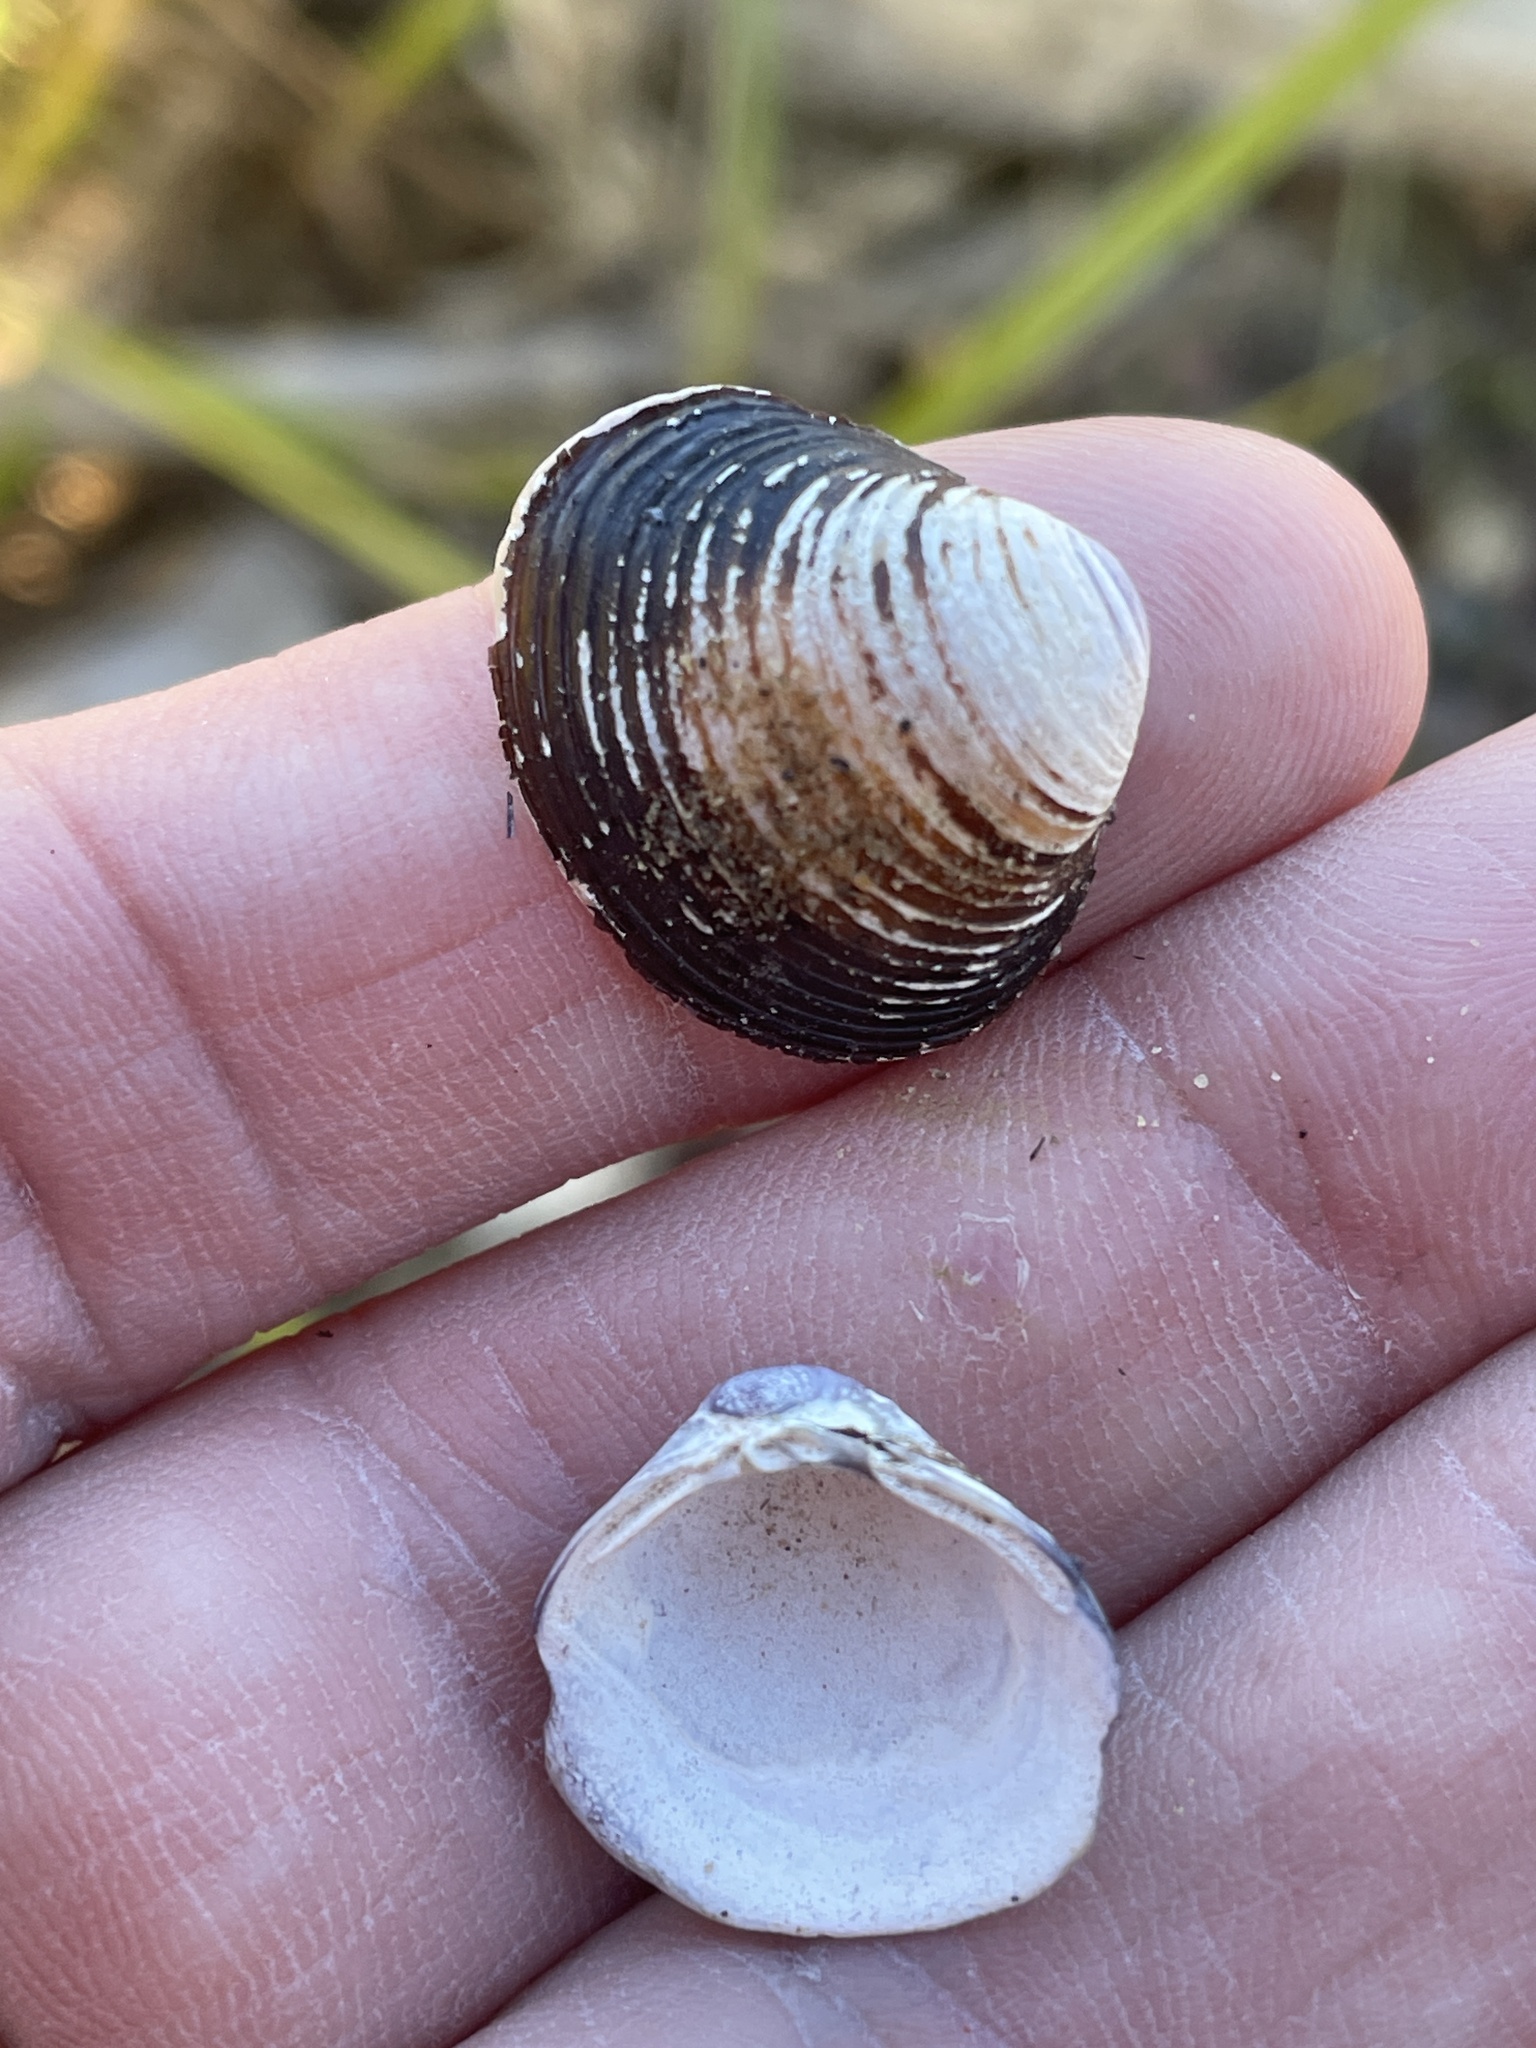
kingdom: Animalia
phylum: Mollusca
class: Bivalvia
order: Venerida
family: Cyrenidae
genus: Corbicula
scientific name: Corbicula fluminea
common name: Asian clam
